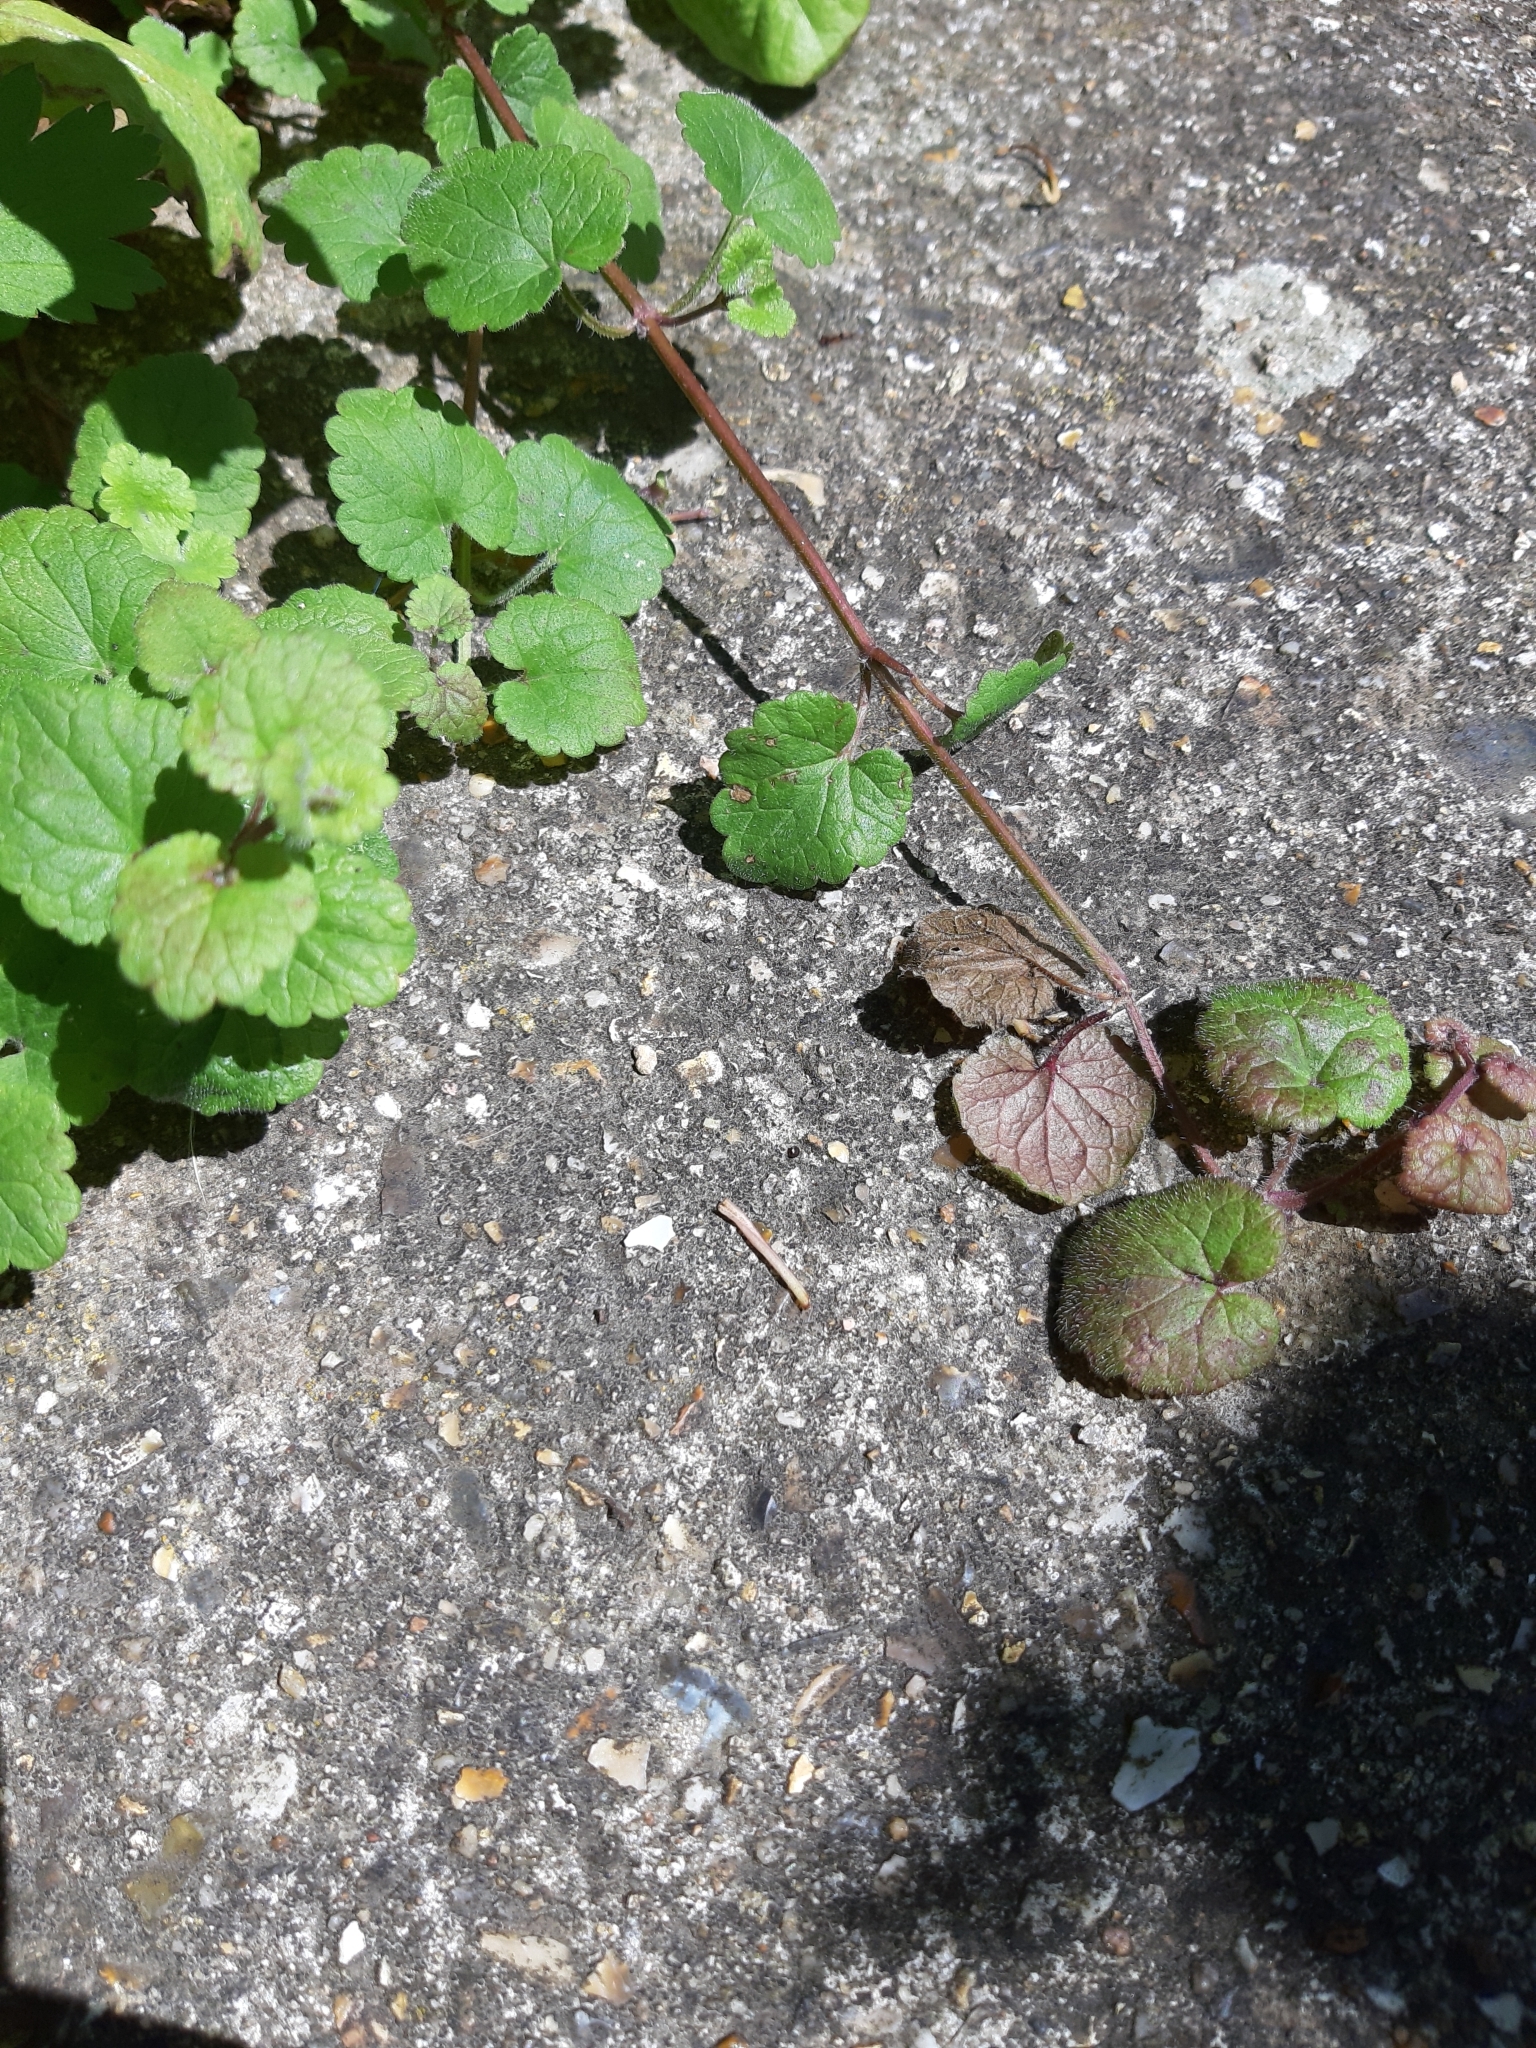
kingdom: Plantae
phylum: Tracheophyta
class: Magnoliopsida
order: Lamiales
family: Lamiaceae
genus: Glechoma
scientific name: Glechoma hederacea
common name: Ground ivy
